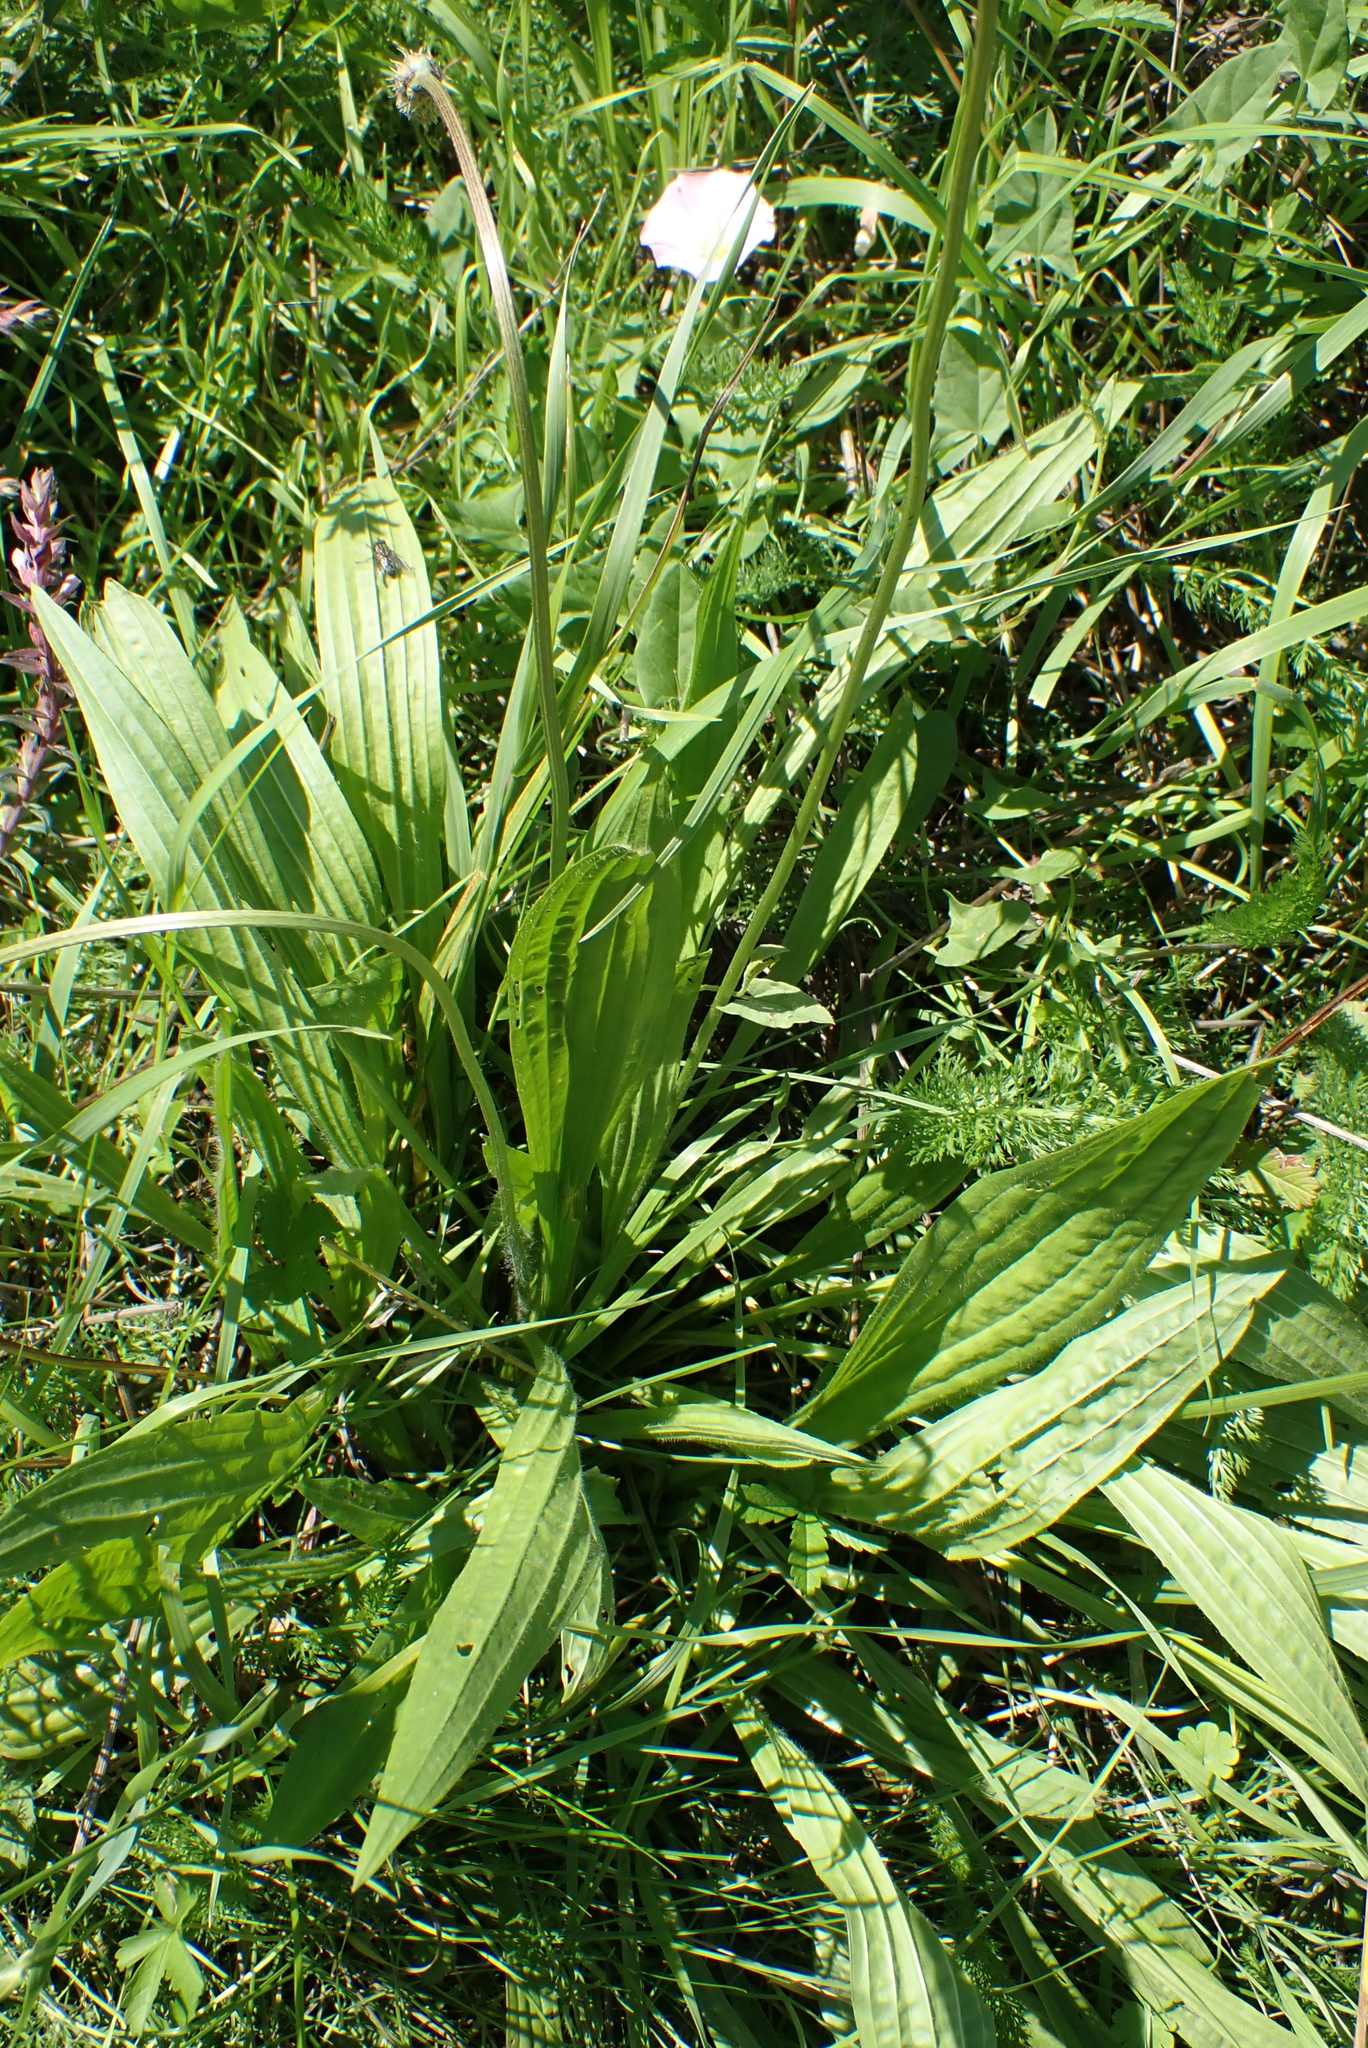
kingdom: Plantae
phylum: Tracheophyta
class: Magnoliopsida
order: Lamiales
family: Plantaginaceae
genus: Plantago
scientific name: Plantago lanceolata
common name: Ribwort plantain
